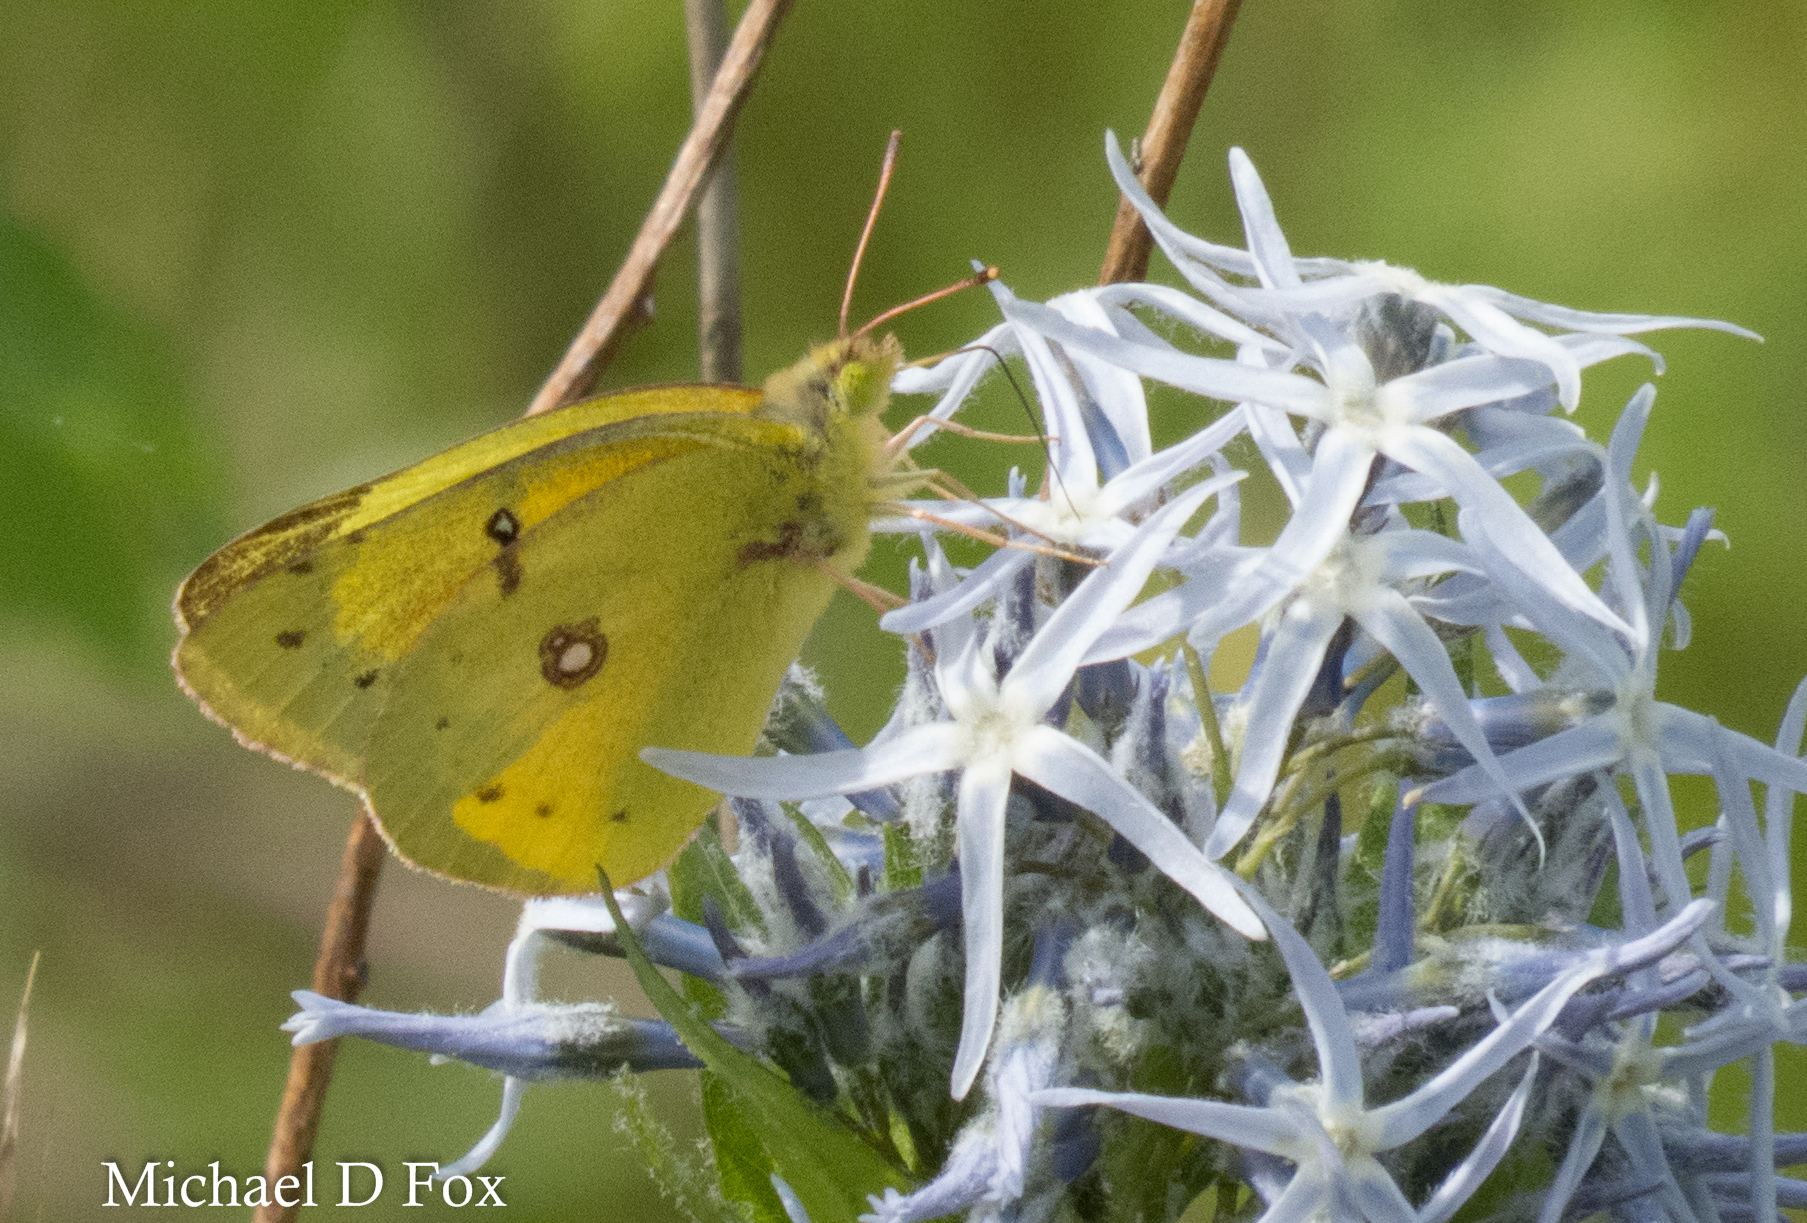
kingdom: Animalia
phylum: Arthropoda
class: Insecta
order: Lepidoptera
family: Pieridae
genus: Colias
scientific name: Colias eurytheme
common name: Alfalfa butterfly
